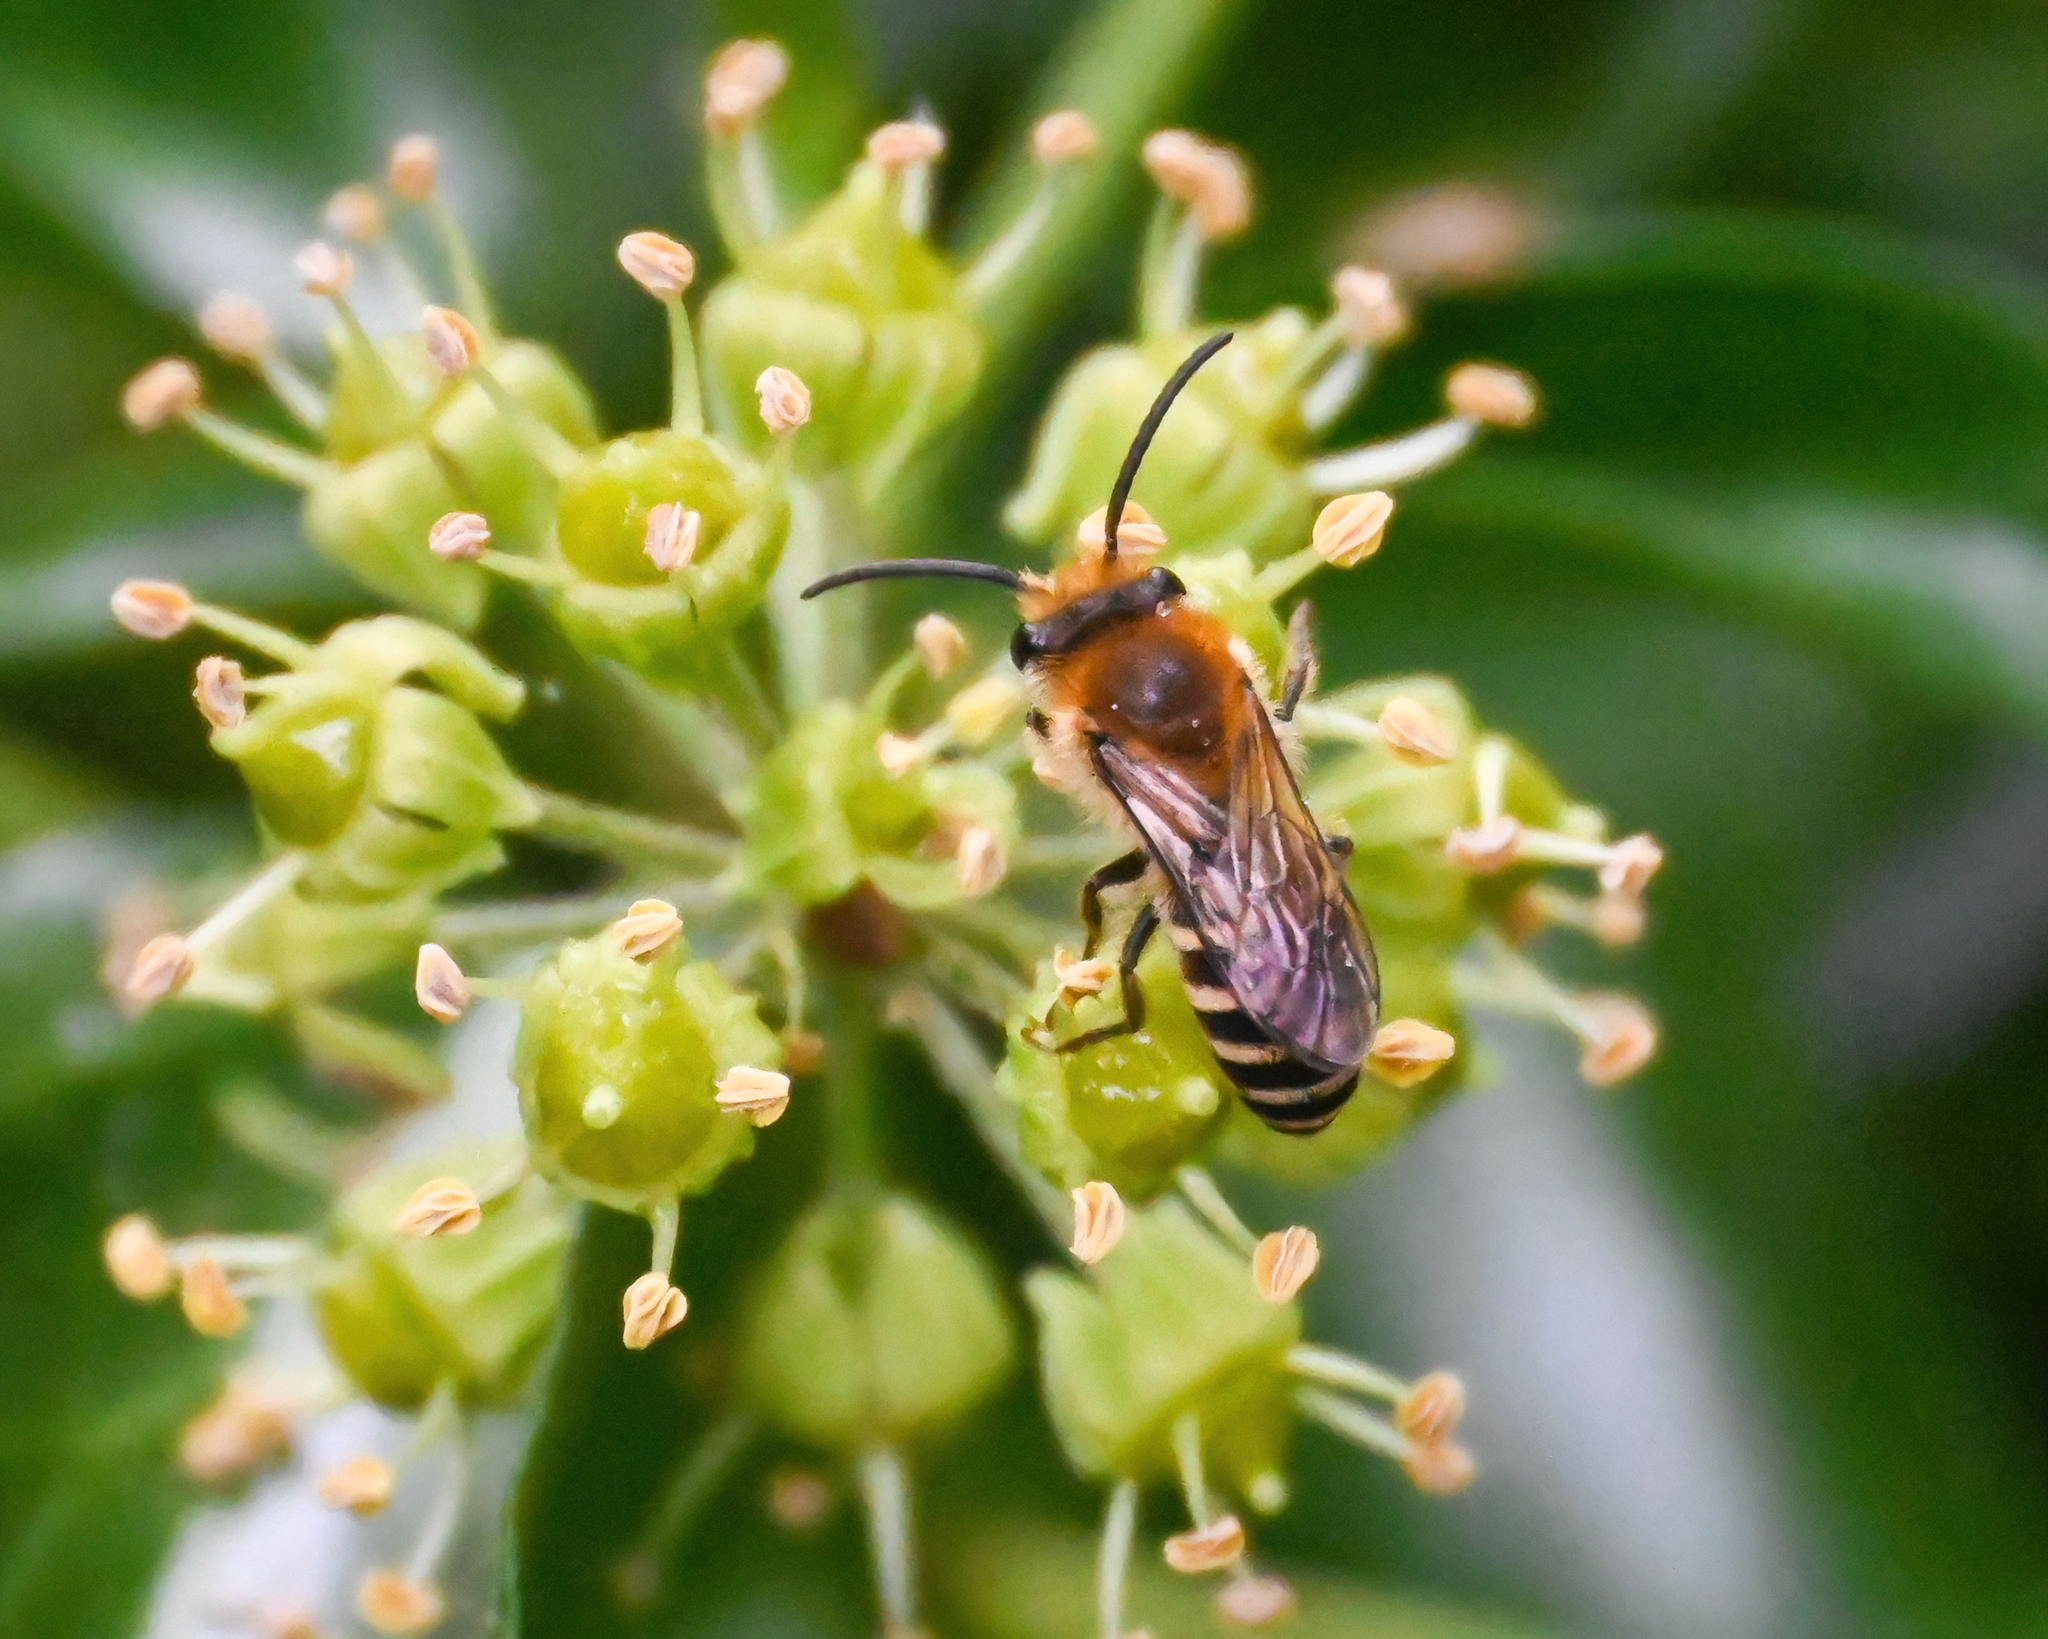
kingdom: Animalia
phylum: Arthropoda
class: Insecta
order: Hymenoptera
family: Colletidae
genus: Colletes
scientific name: Colletes hederae
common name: Ivy bee
